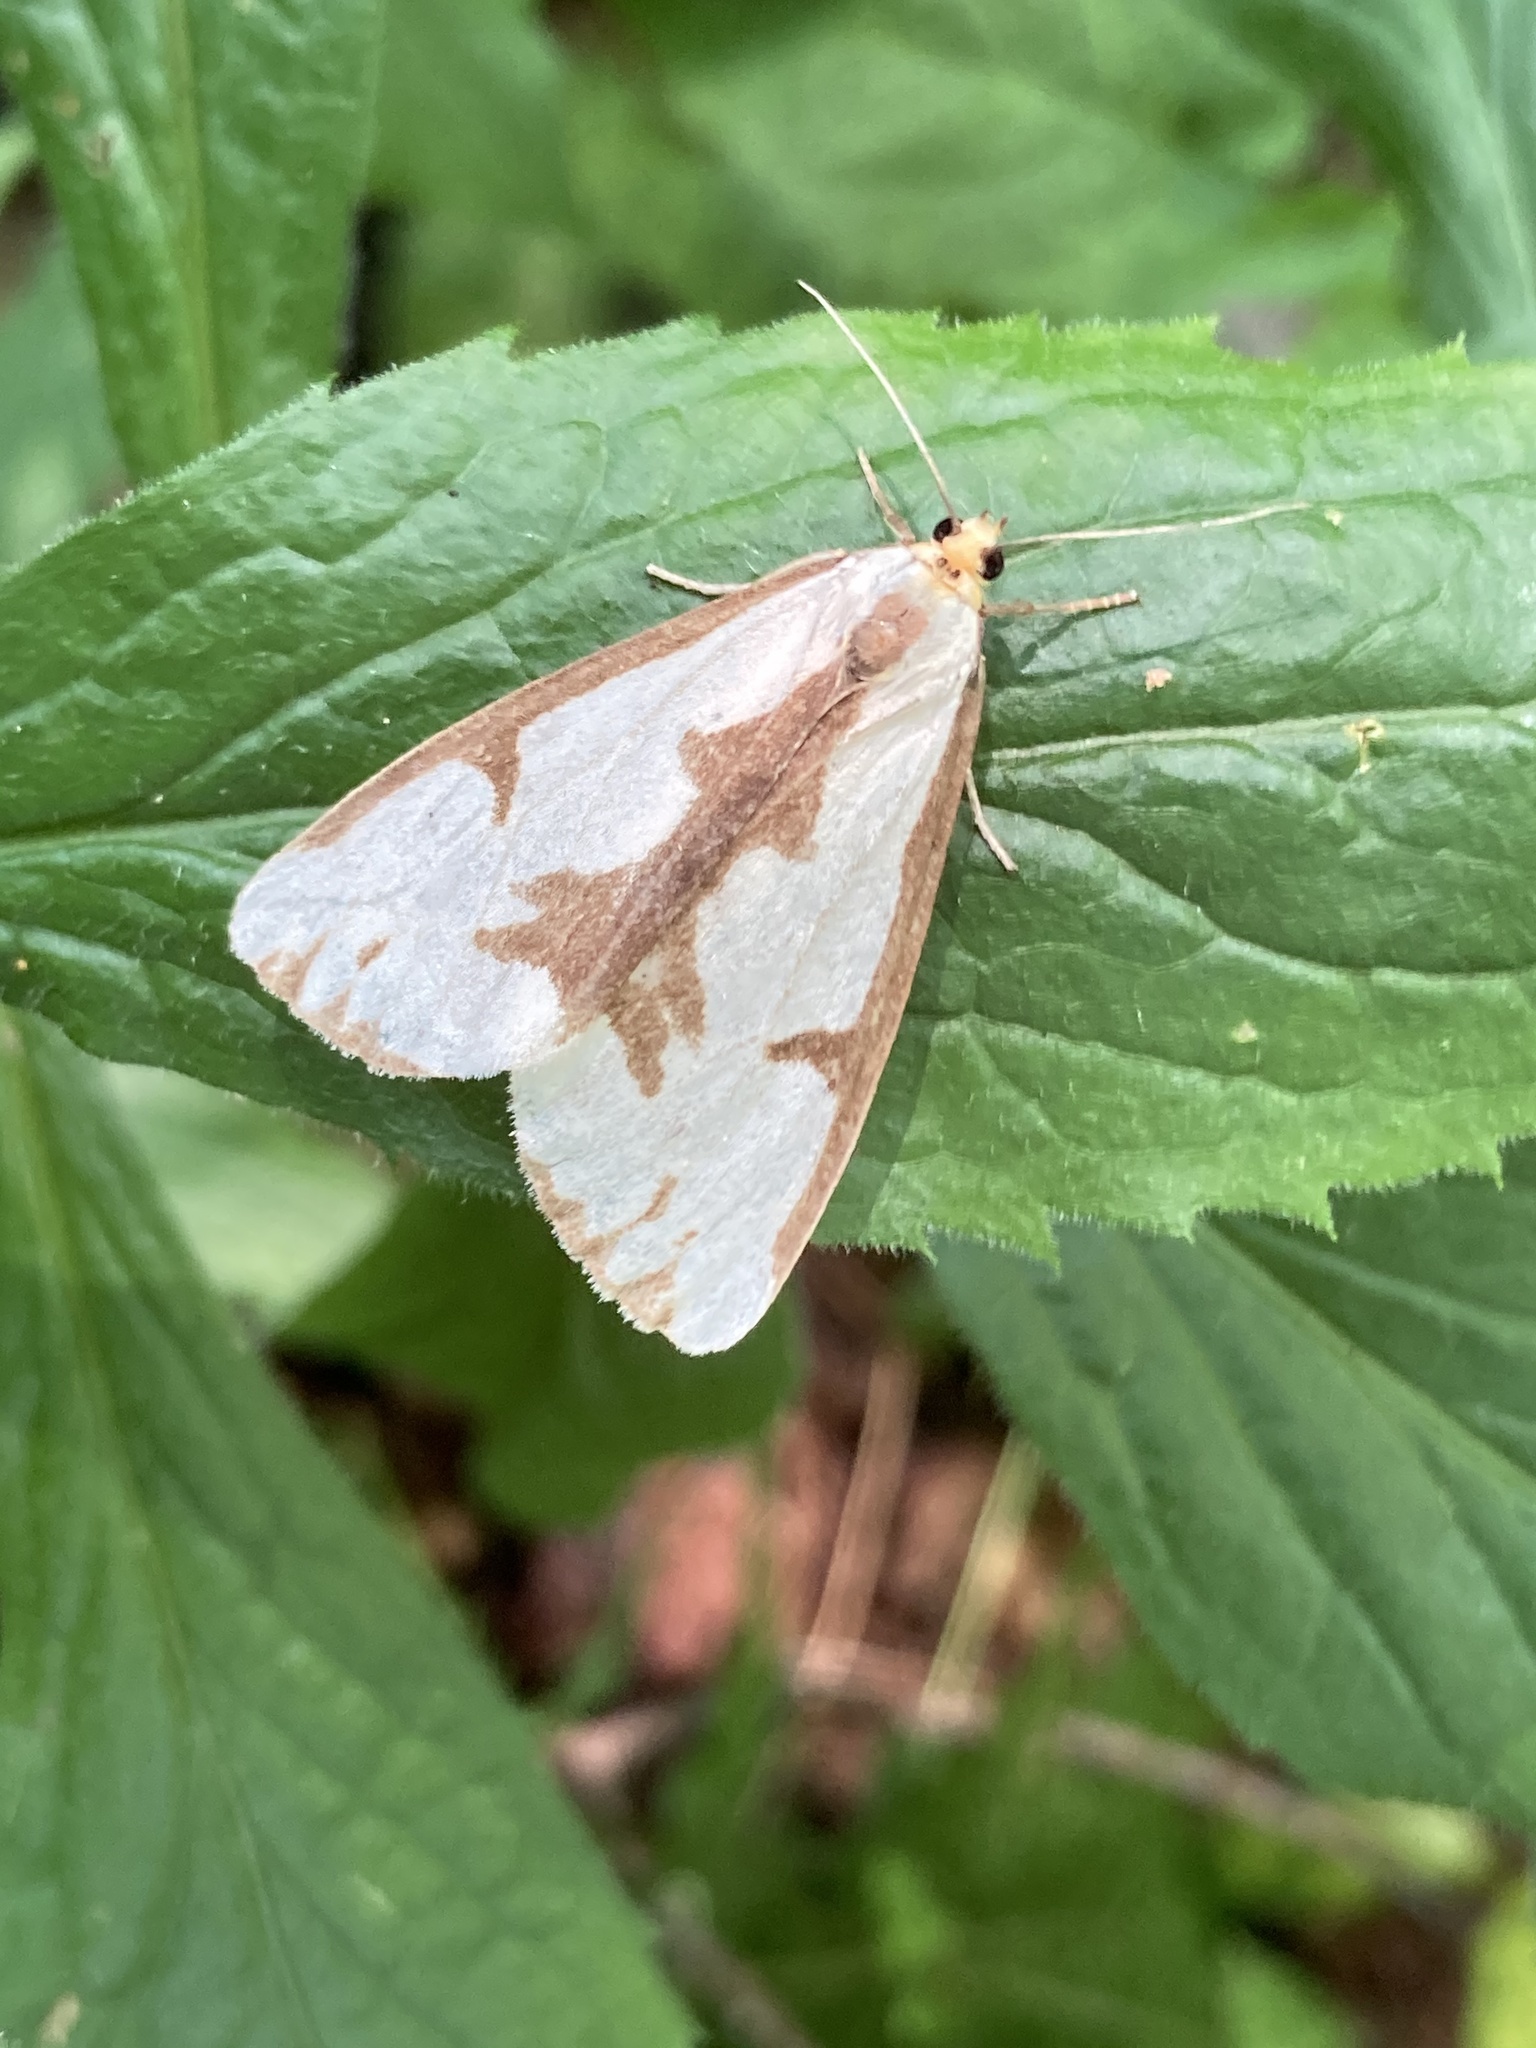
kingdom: Animalia
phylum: Arthropoda
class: Insecta
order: Lepidoptera
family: Erebidae
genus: Haploa
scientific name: Haploa lecontei
